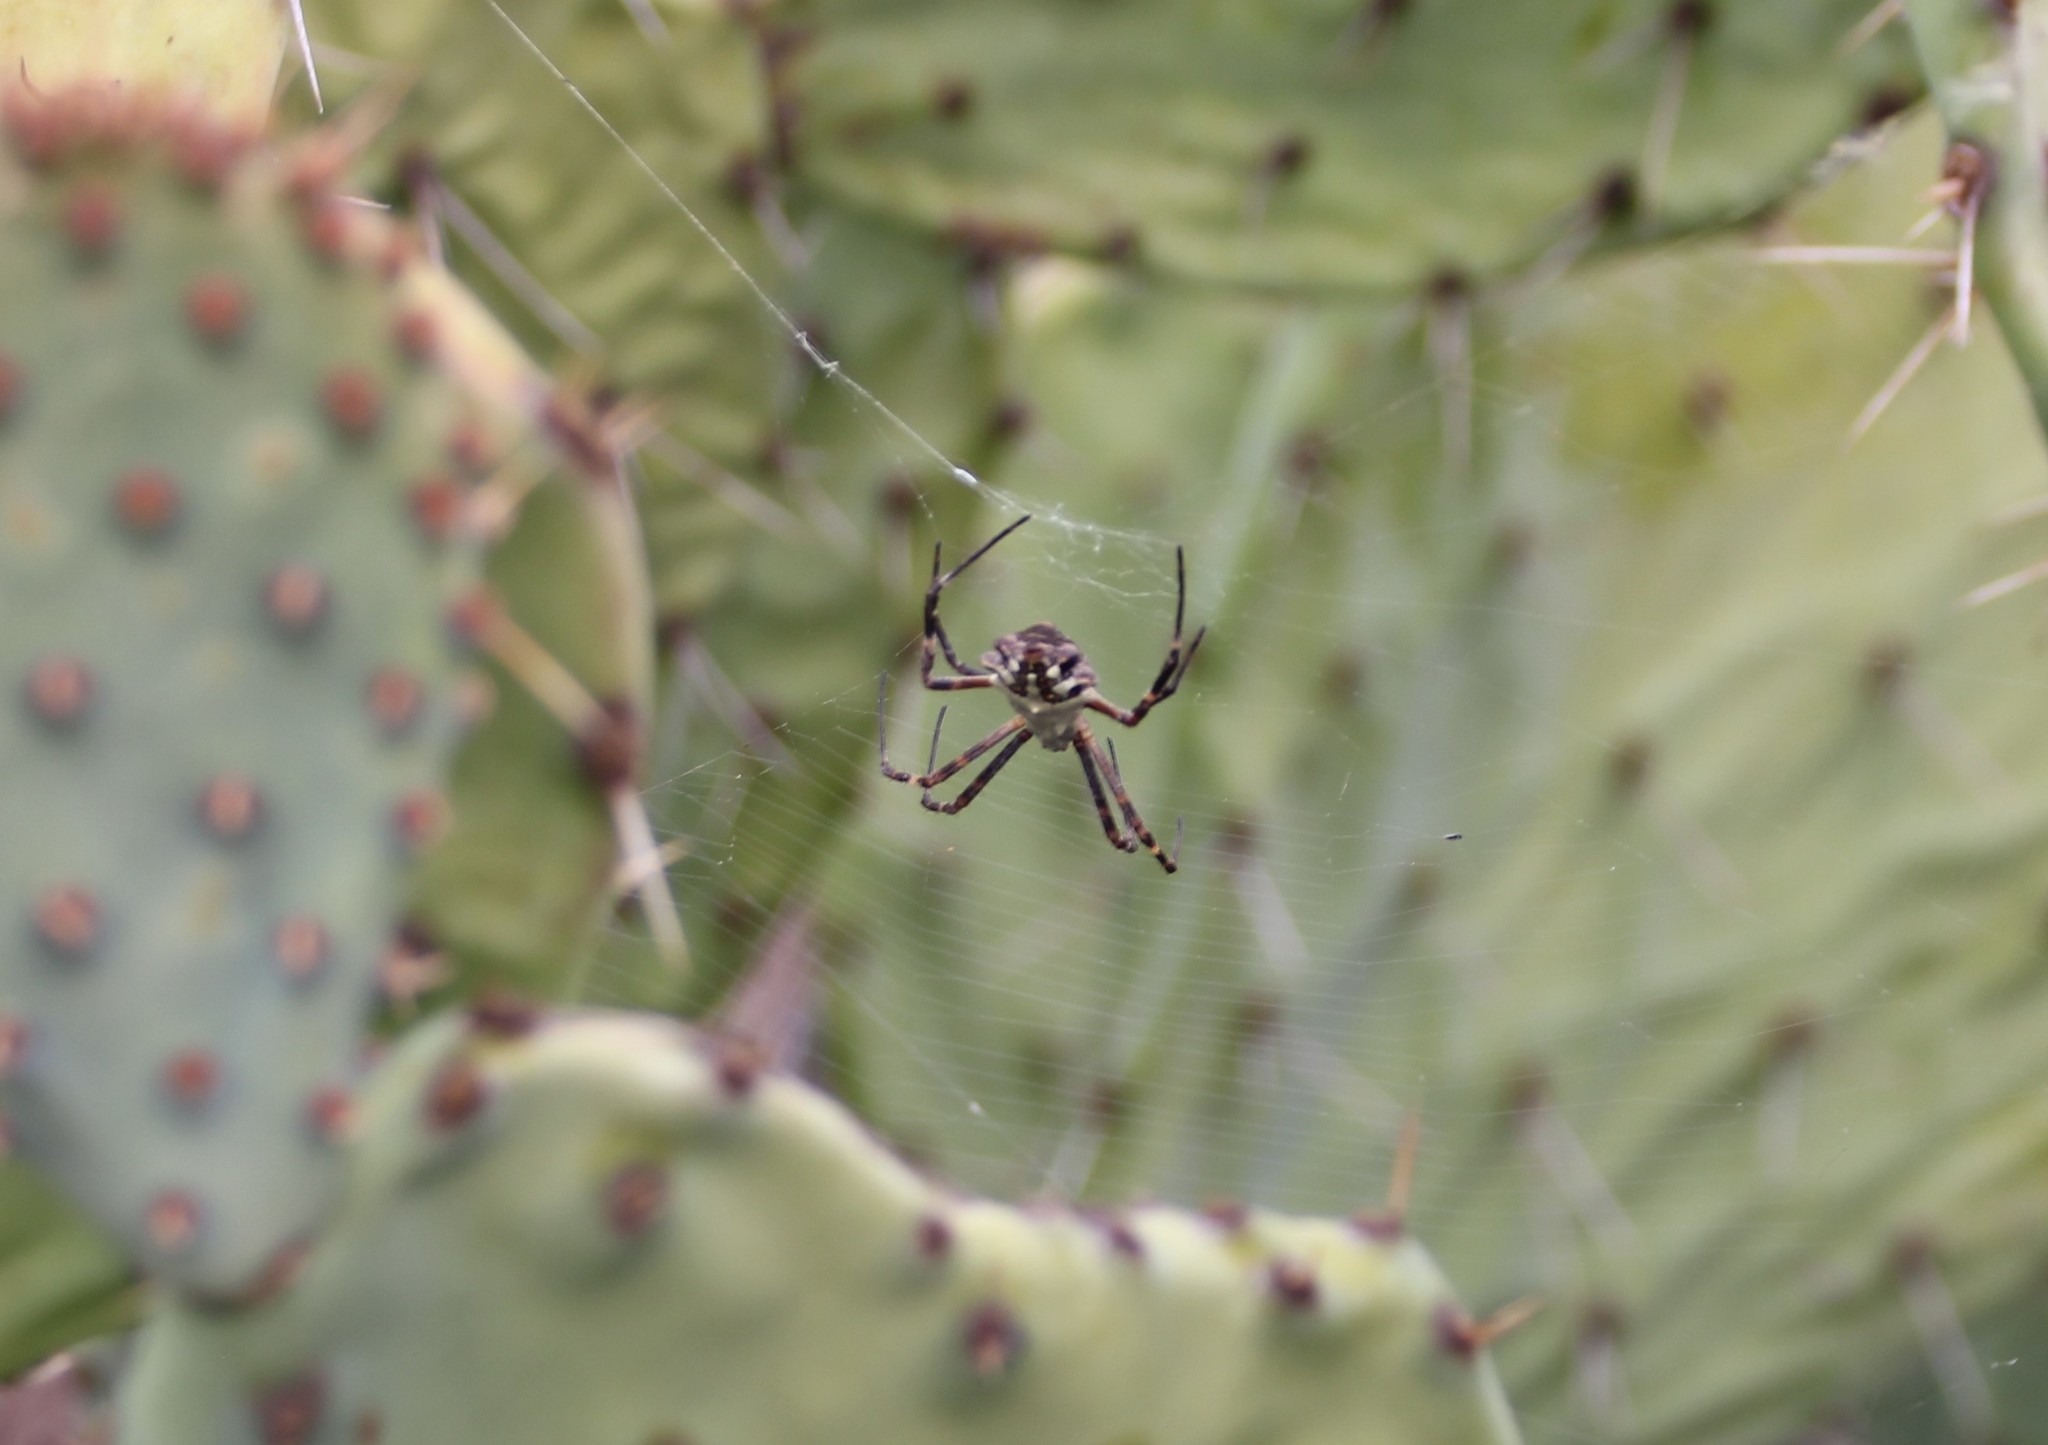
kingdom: Animalia
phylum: Arthropoda
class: Arachnida
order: Araneae
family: Araneidae
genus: Argiope
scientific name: Argiope argentata
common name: Orb weavers
